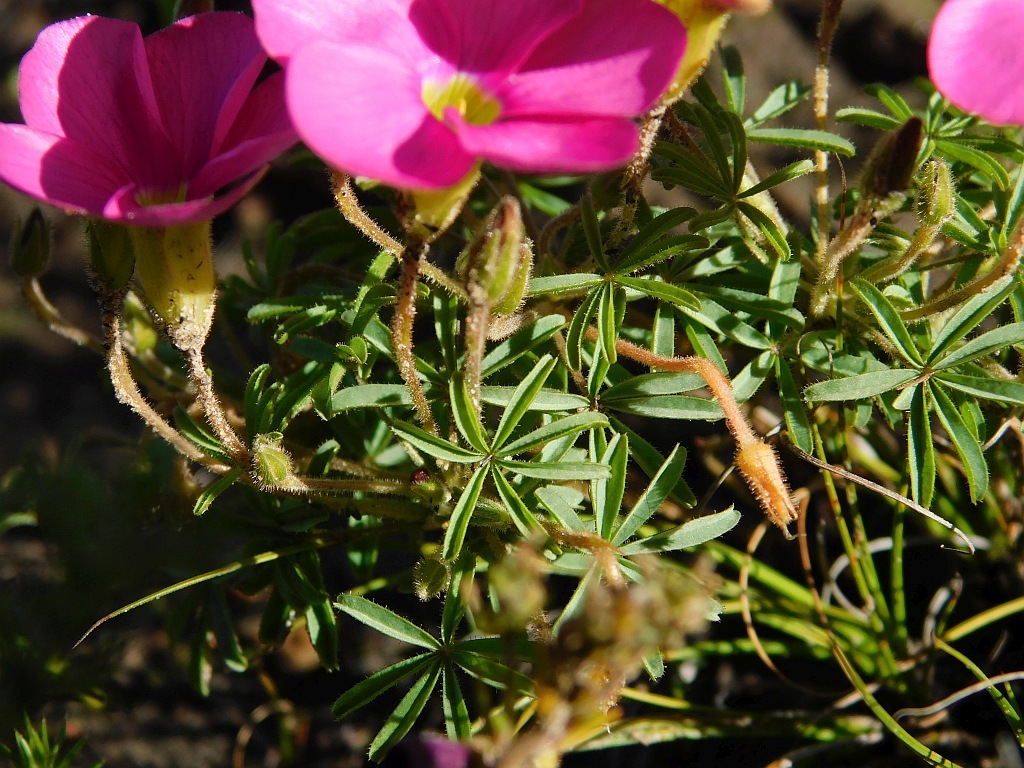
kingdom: Plantae
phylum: Tracheophyta
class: Magnoliopsida
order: Oxalidales
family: Oxalidaceae
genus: Oxalis
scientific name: Oxalis engleriana
